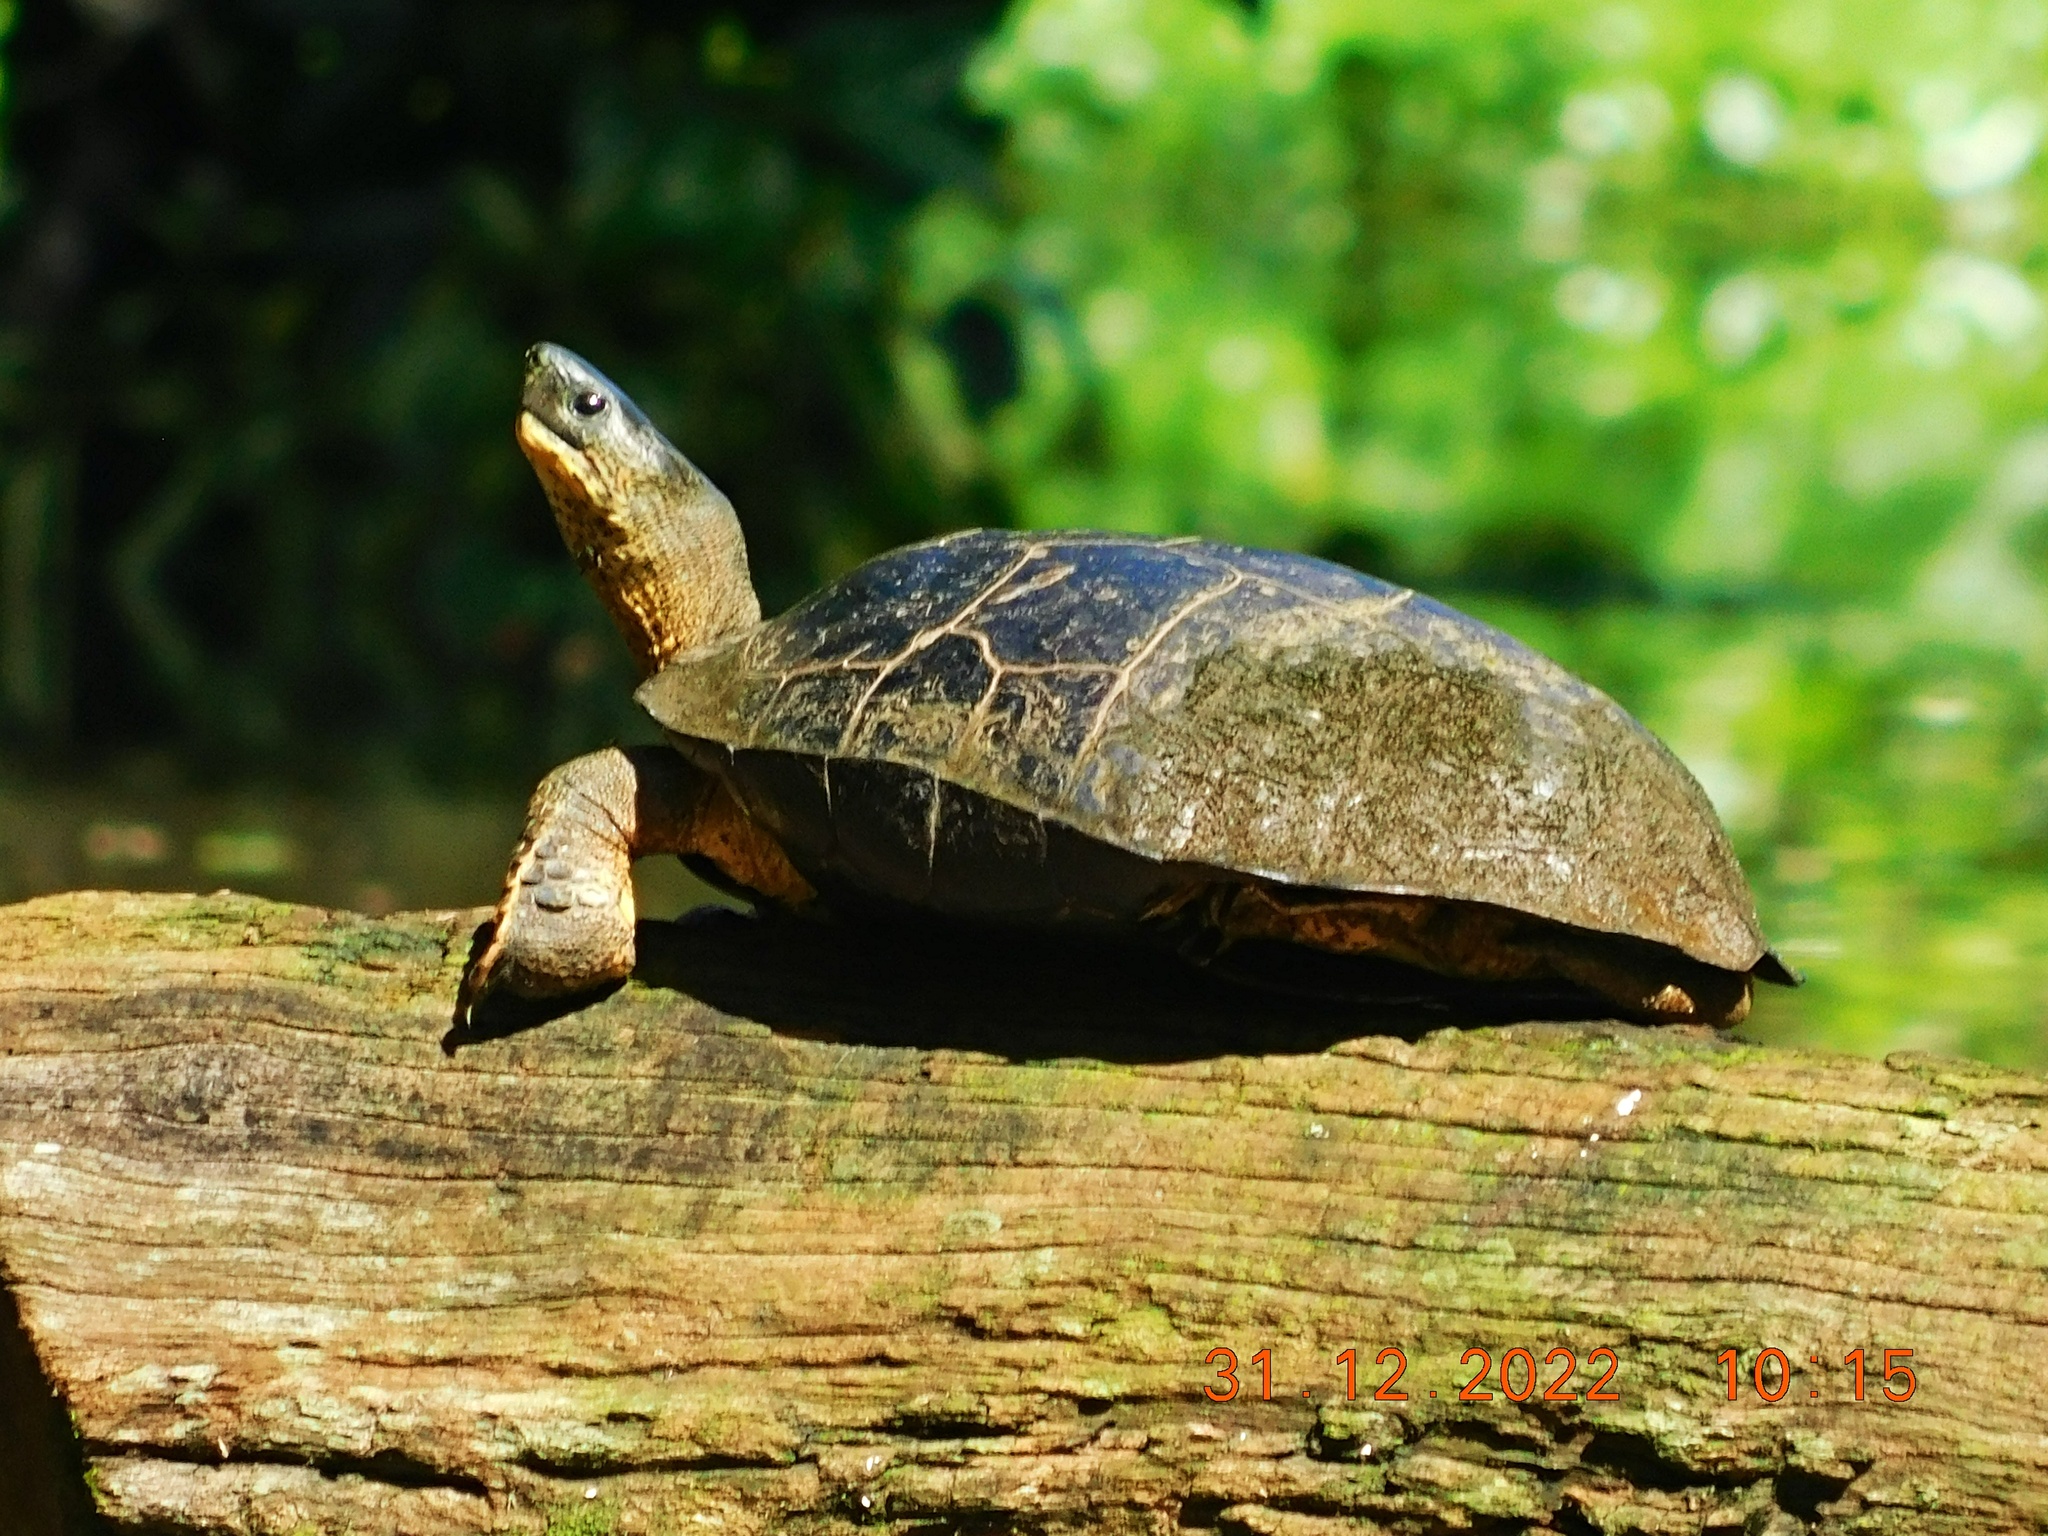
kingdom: Animalia
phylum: Chordata
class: Testudines
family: Geoemydidae
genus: Rhinoclemmys
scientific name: Rhinoclemmys funerea
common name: Black wood turtle
